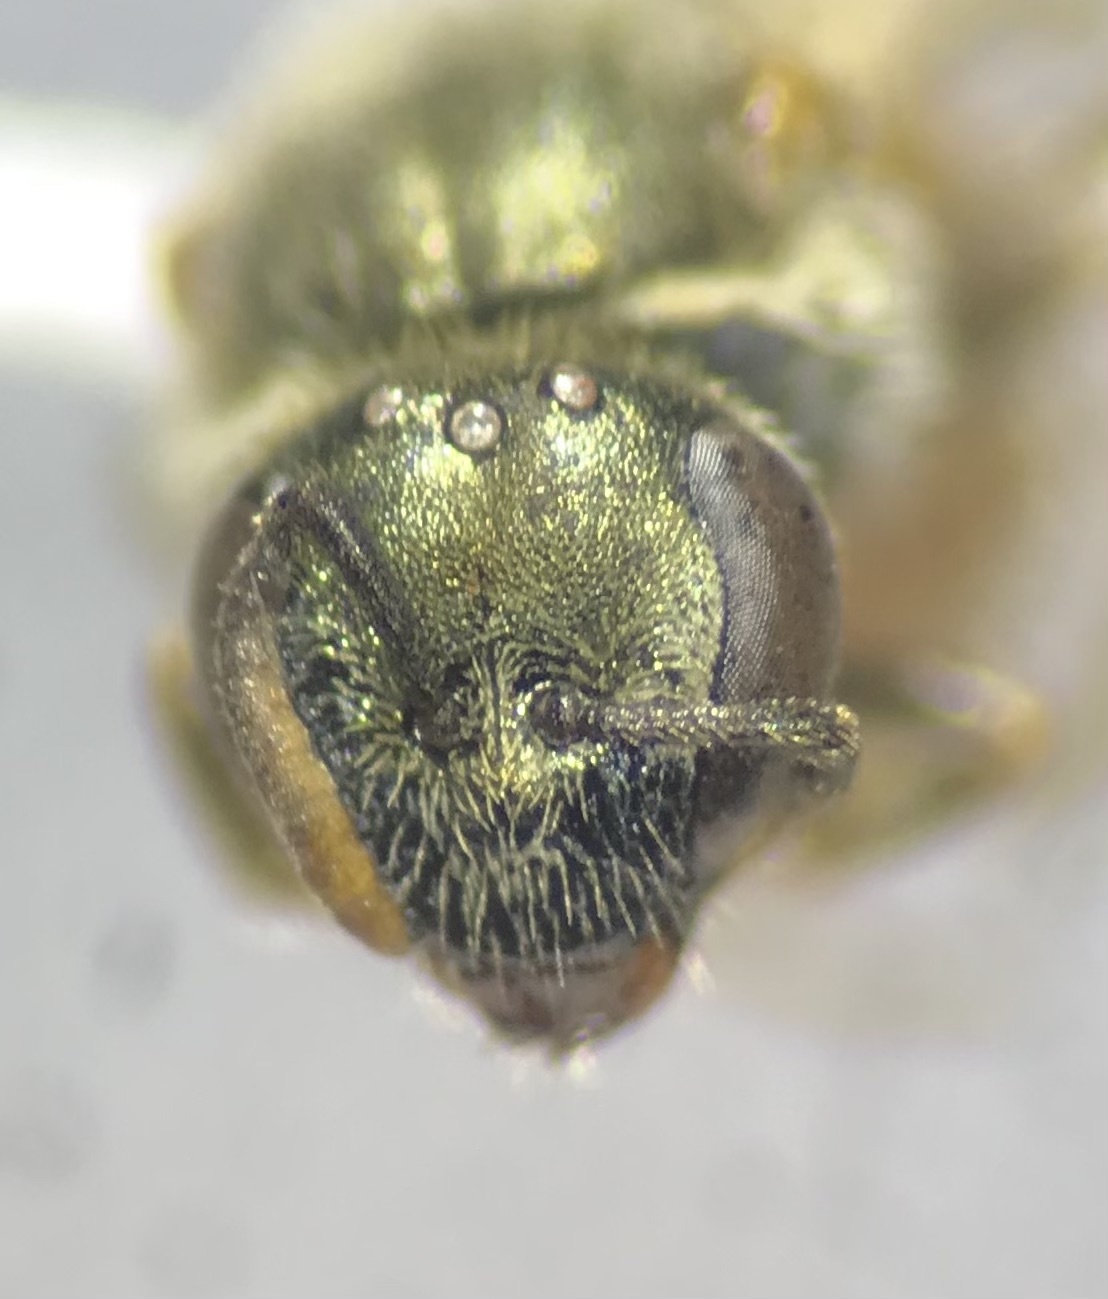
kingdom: Animalia
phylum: Arthropoda
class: Insecta
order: Hymenoptera
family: Halictidae
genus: Lasioglossum
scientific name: Lasioglossum pictum
